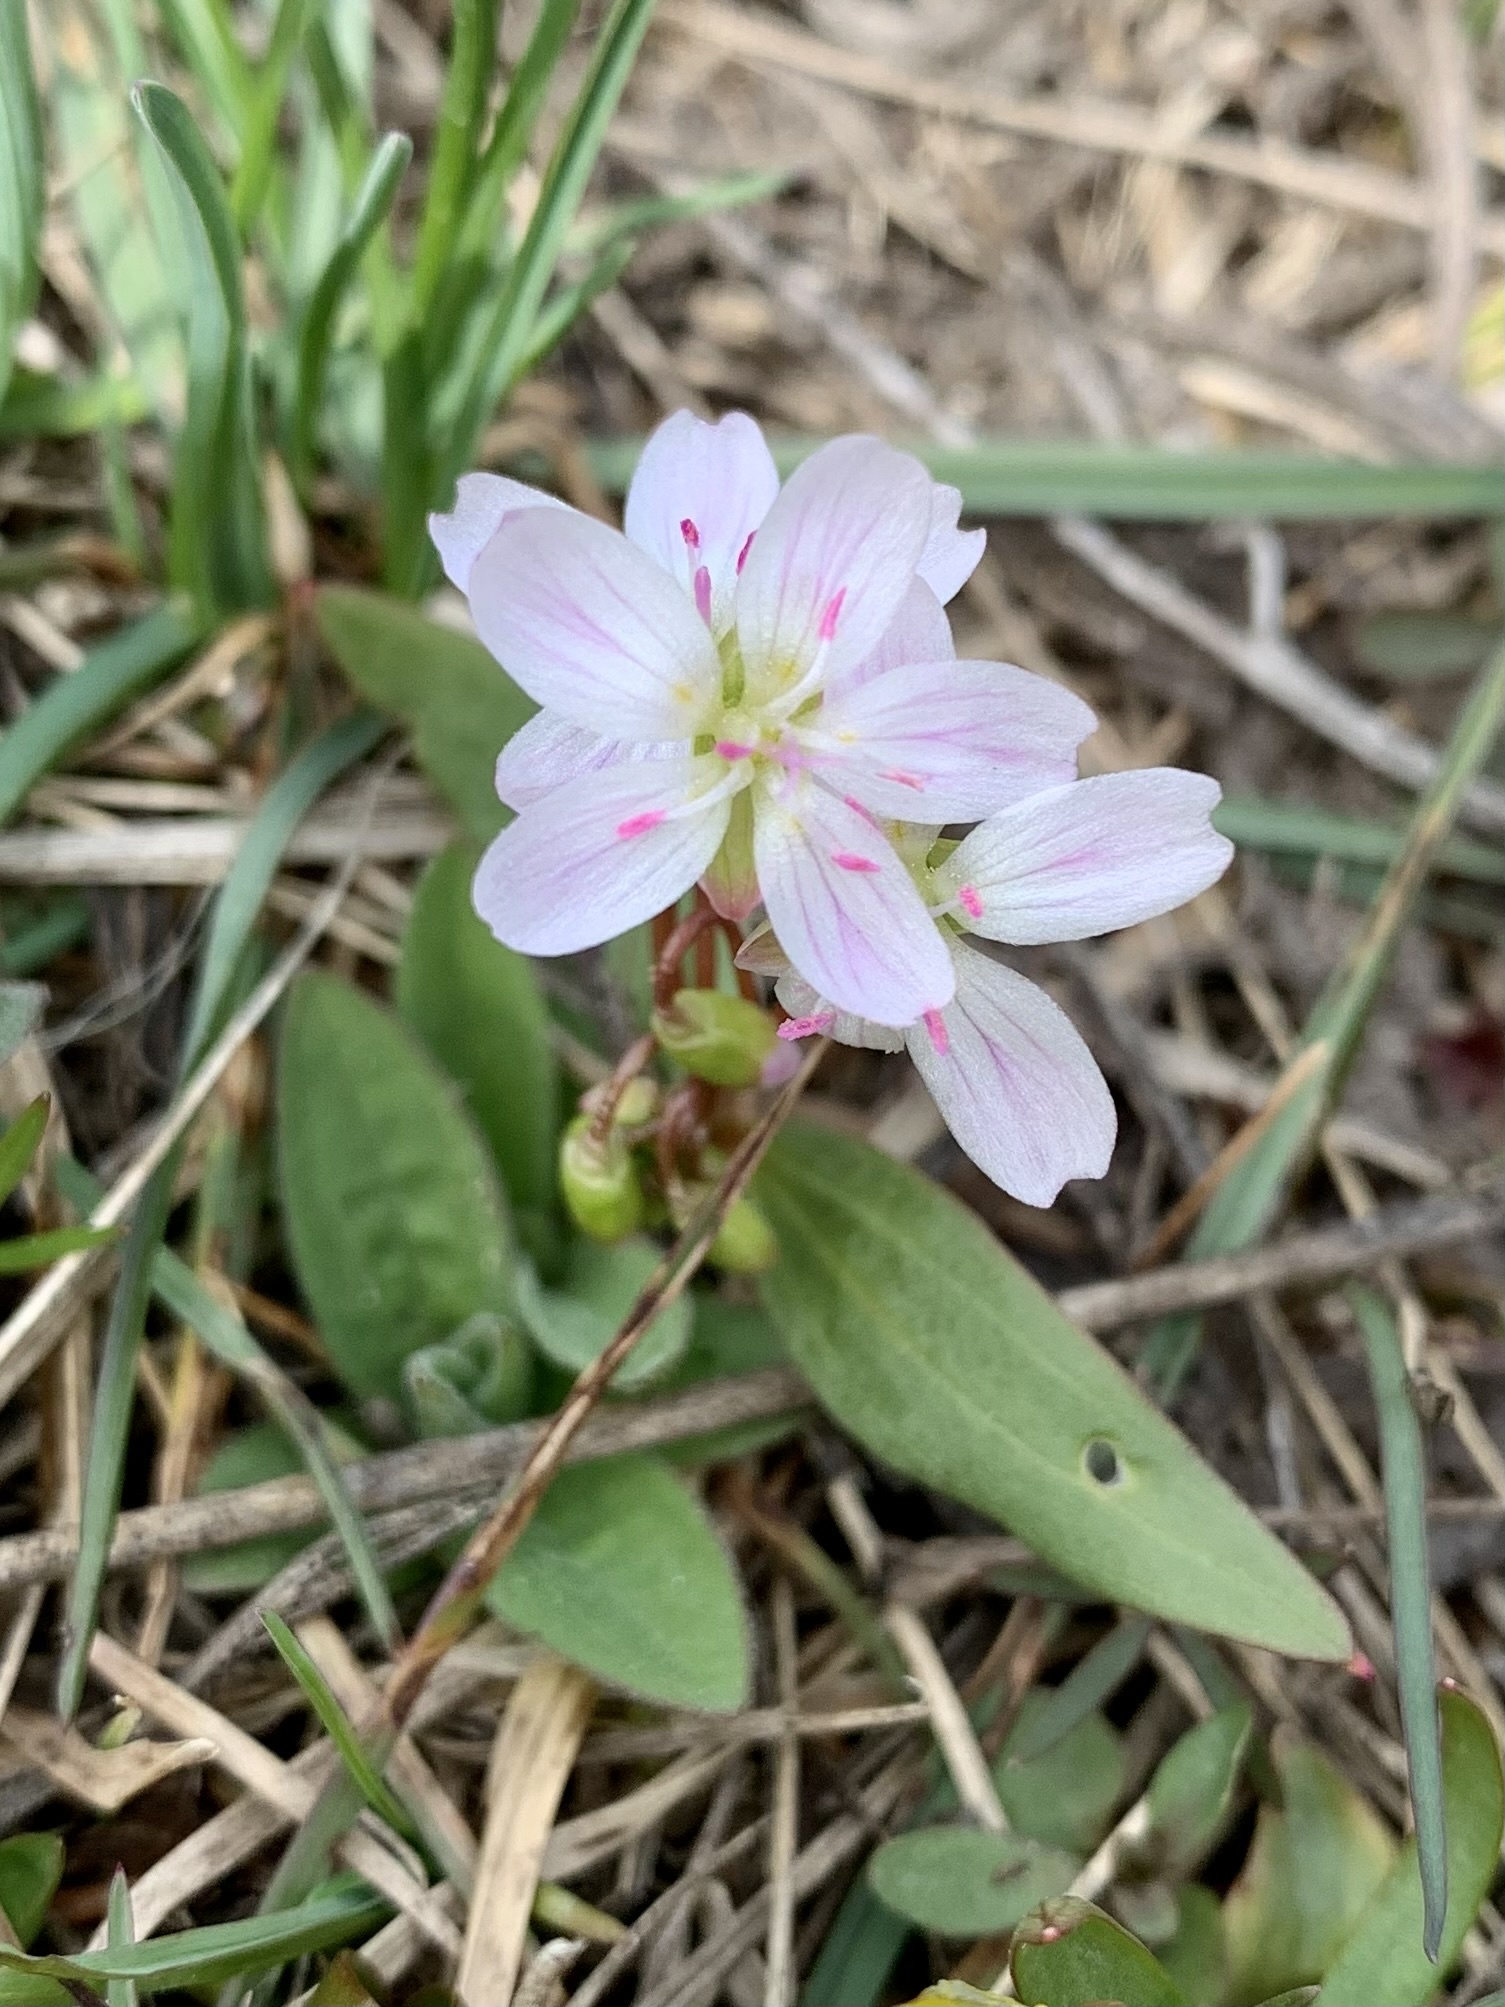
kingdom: Plantae
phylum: Tracheophyta
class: Magnoliopsida
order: Caryophyllales
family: Montiaceae
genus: Claytonia
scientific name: Claytonia lanceolata
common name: Western spring-beauty
